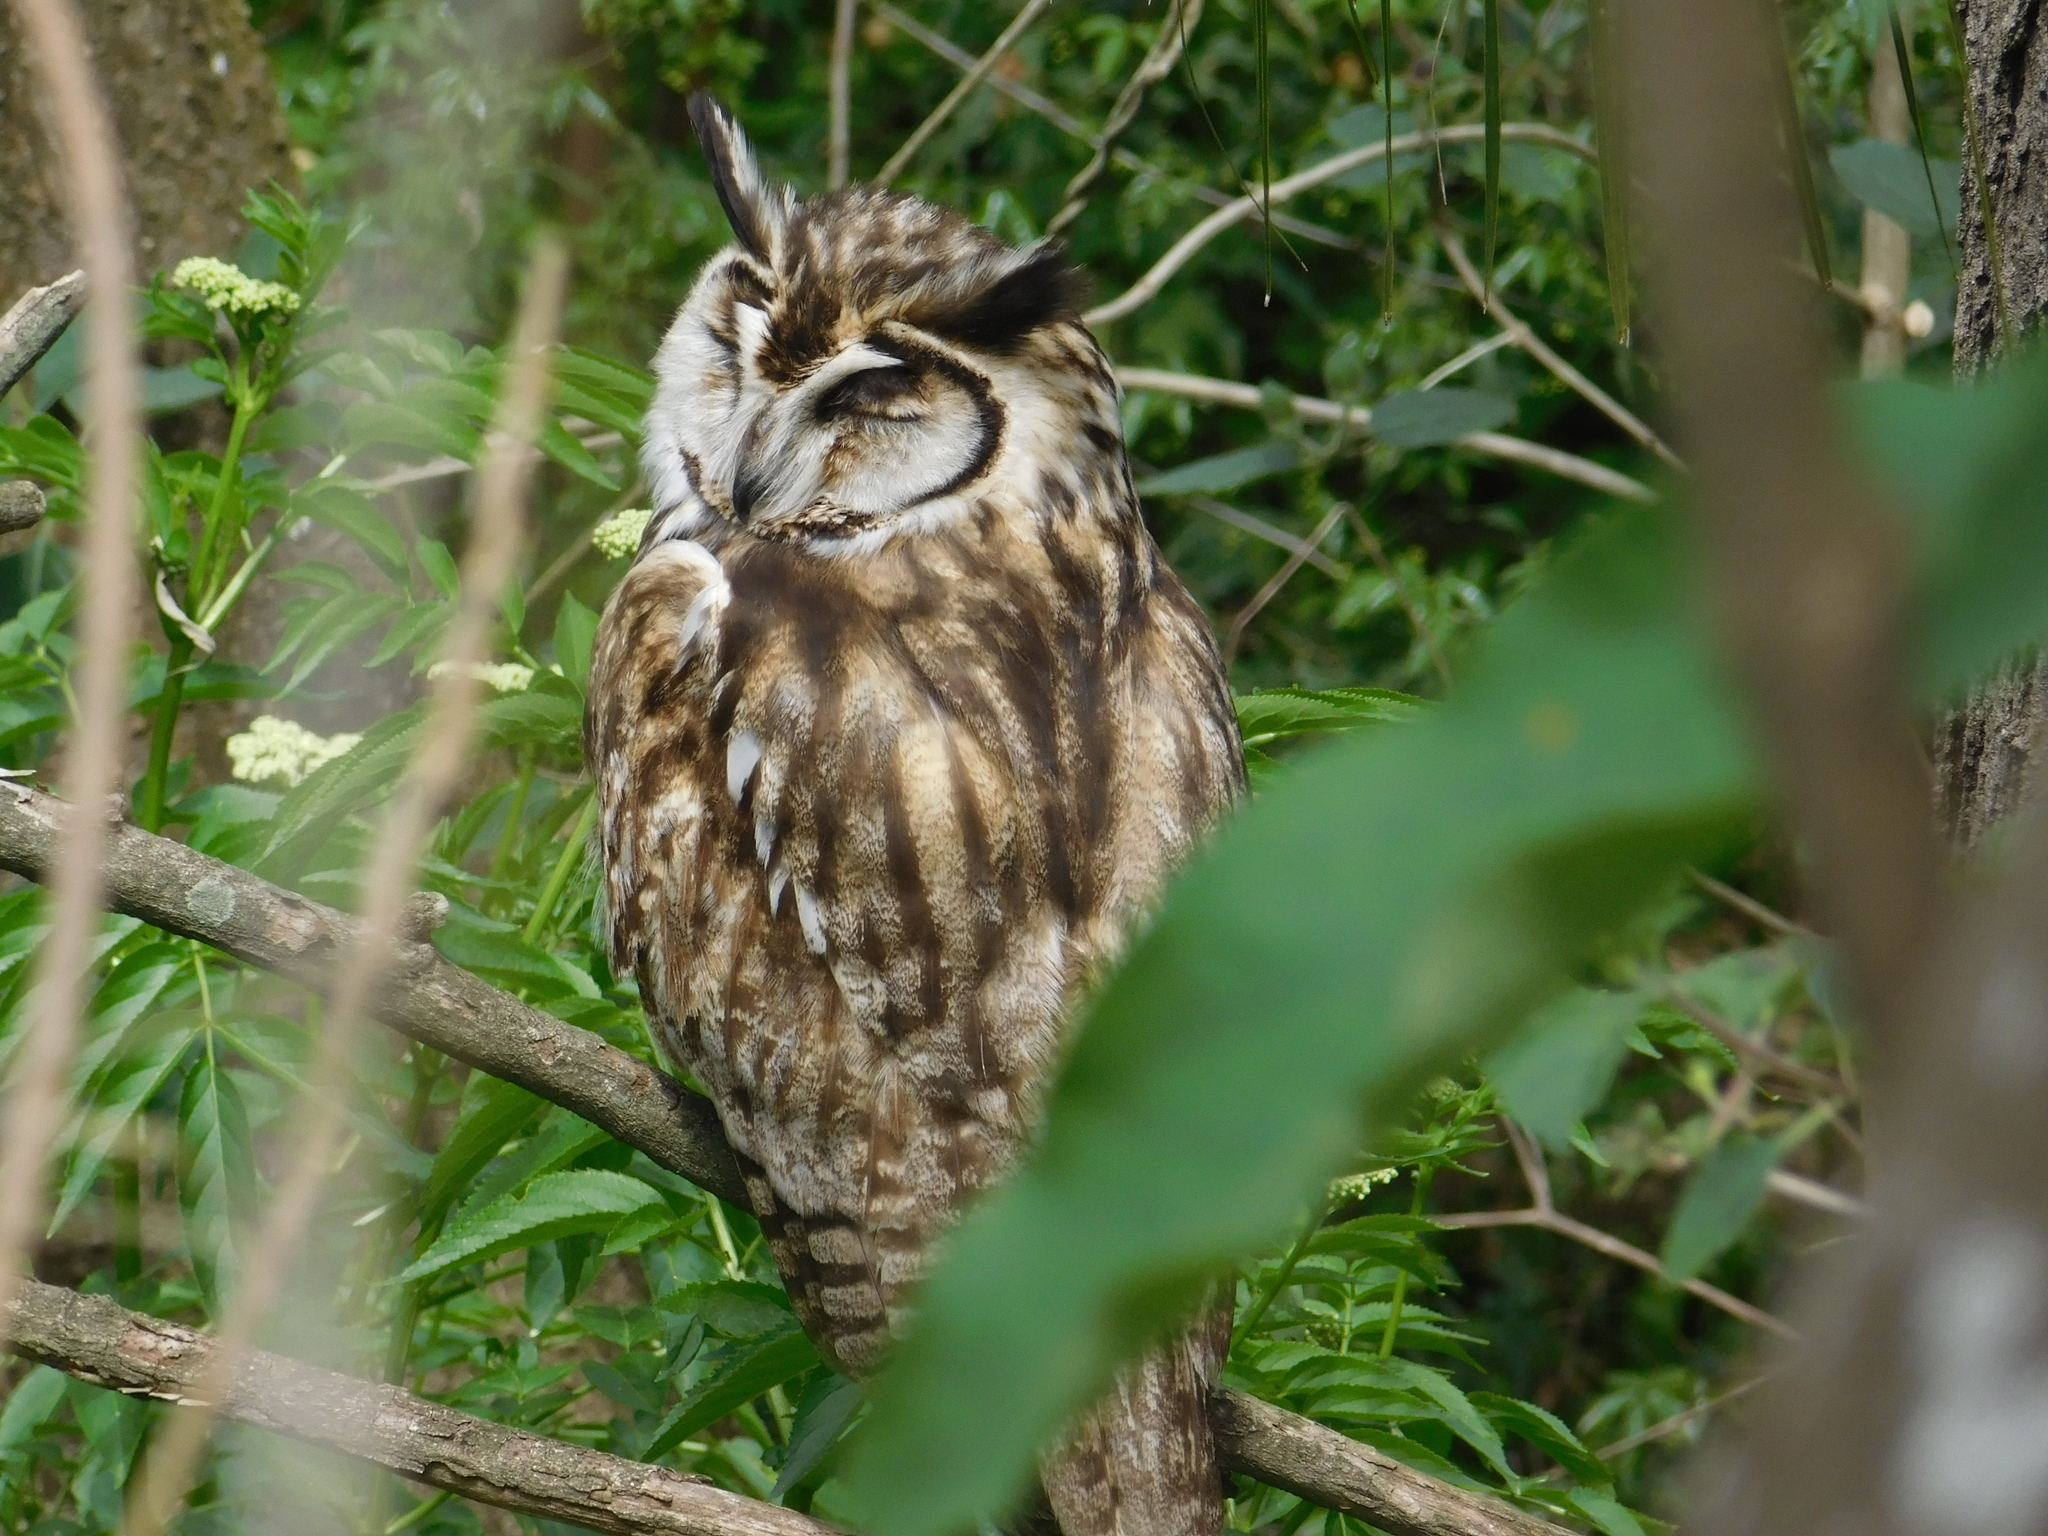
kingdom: Animalia
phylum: Chordata
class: Aves
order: Strigiformes
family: Strigidae
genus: Pseudoscops
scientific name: Pseudoscops clamator
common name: Striped owl
